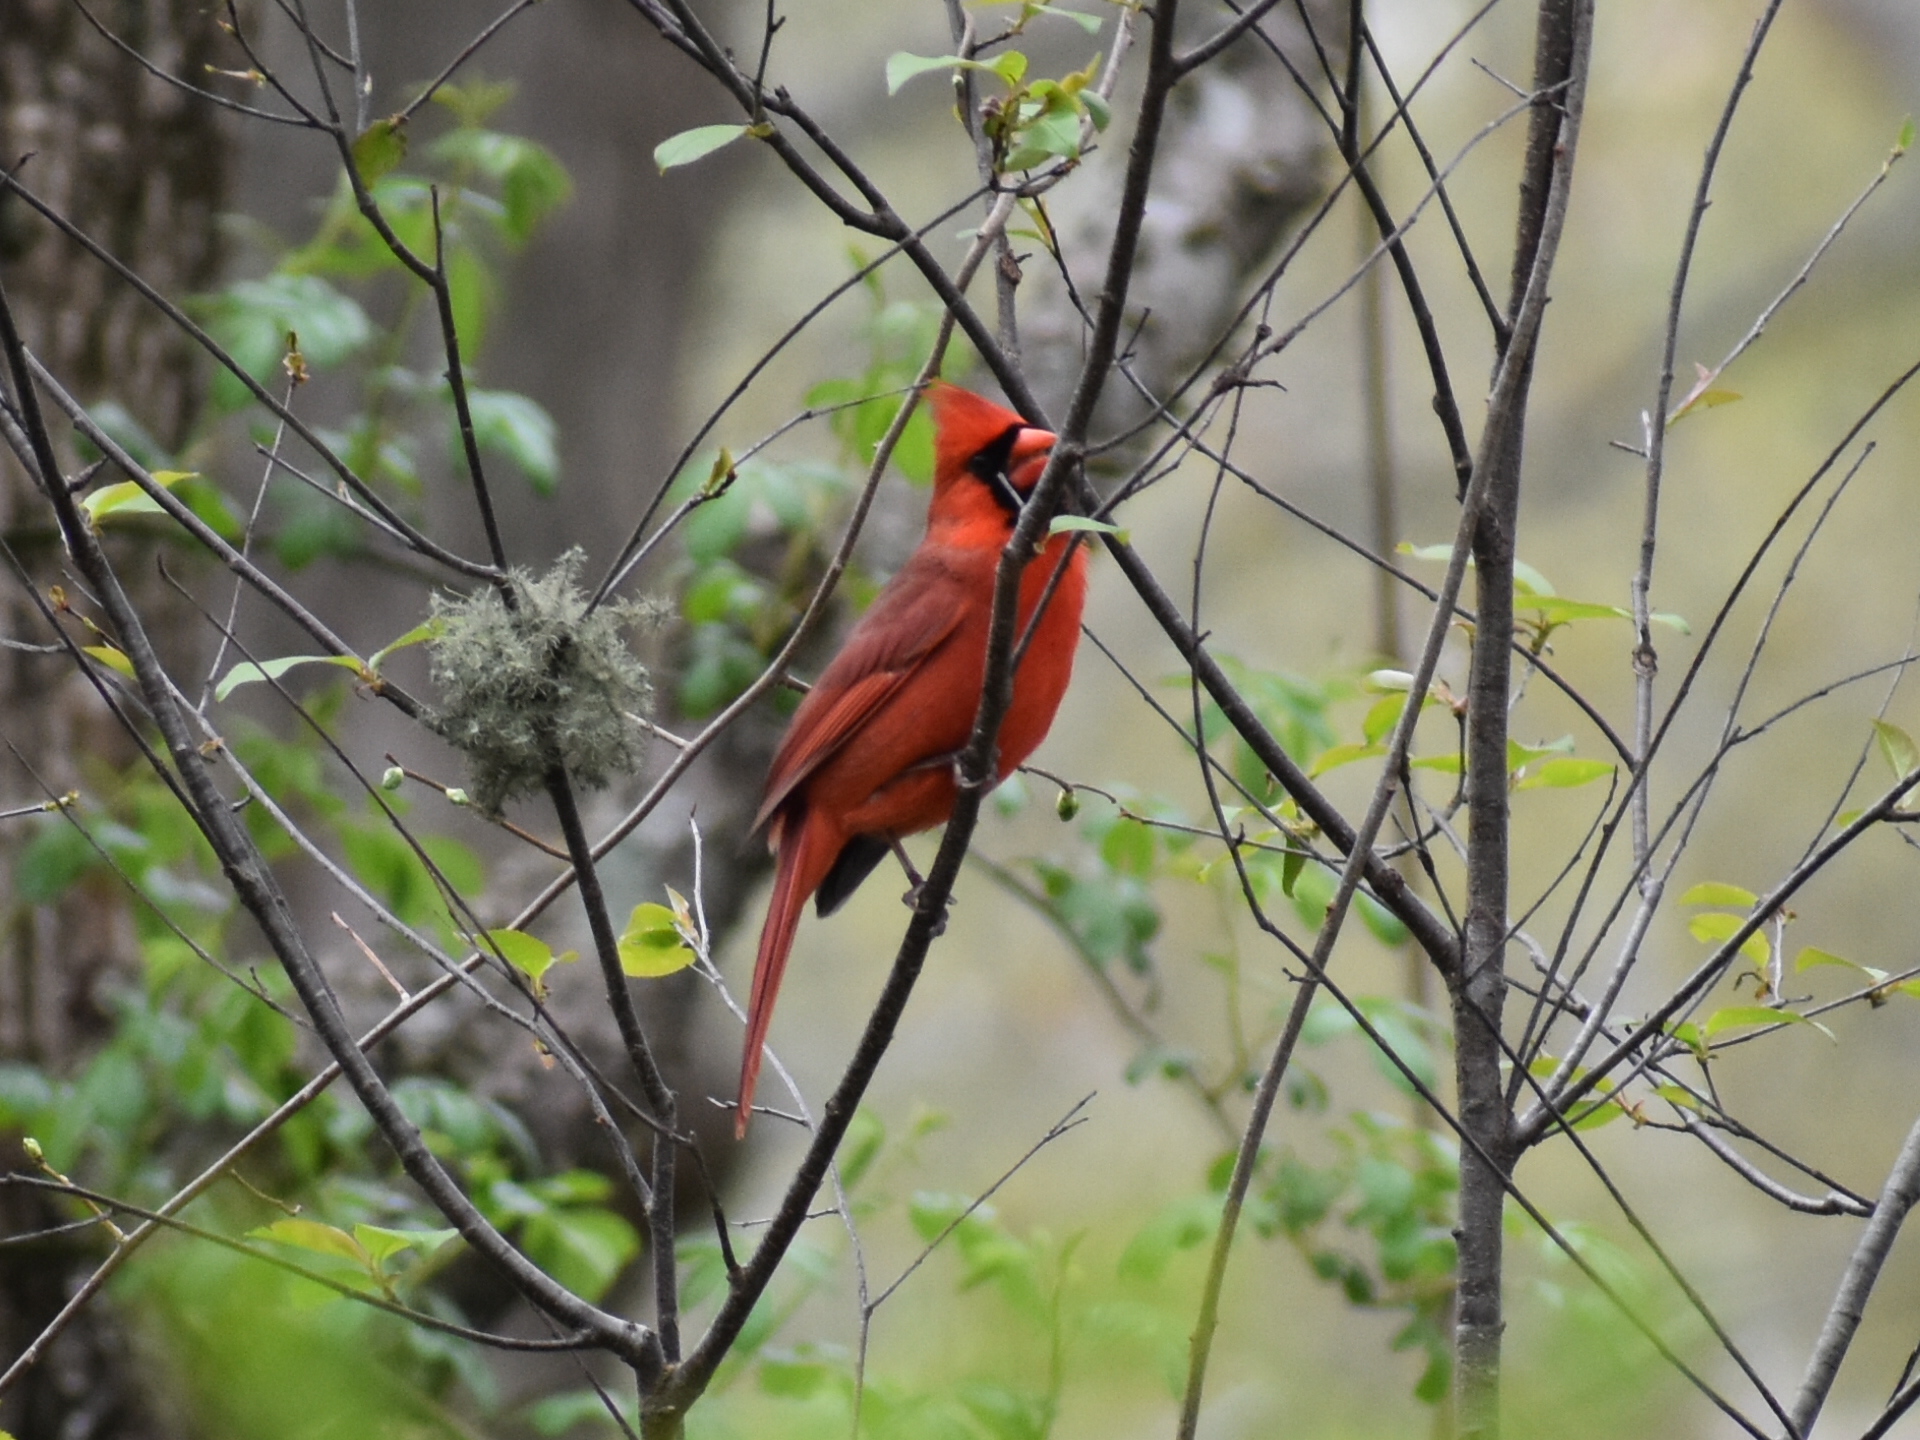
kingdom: Animalia
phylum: Chordata
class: Aves
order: Passeriformes
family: Cardinalidae
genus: Cardinalis
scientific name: Cardinalis cardinalis
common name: Northern cardinal
